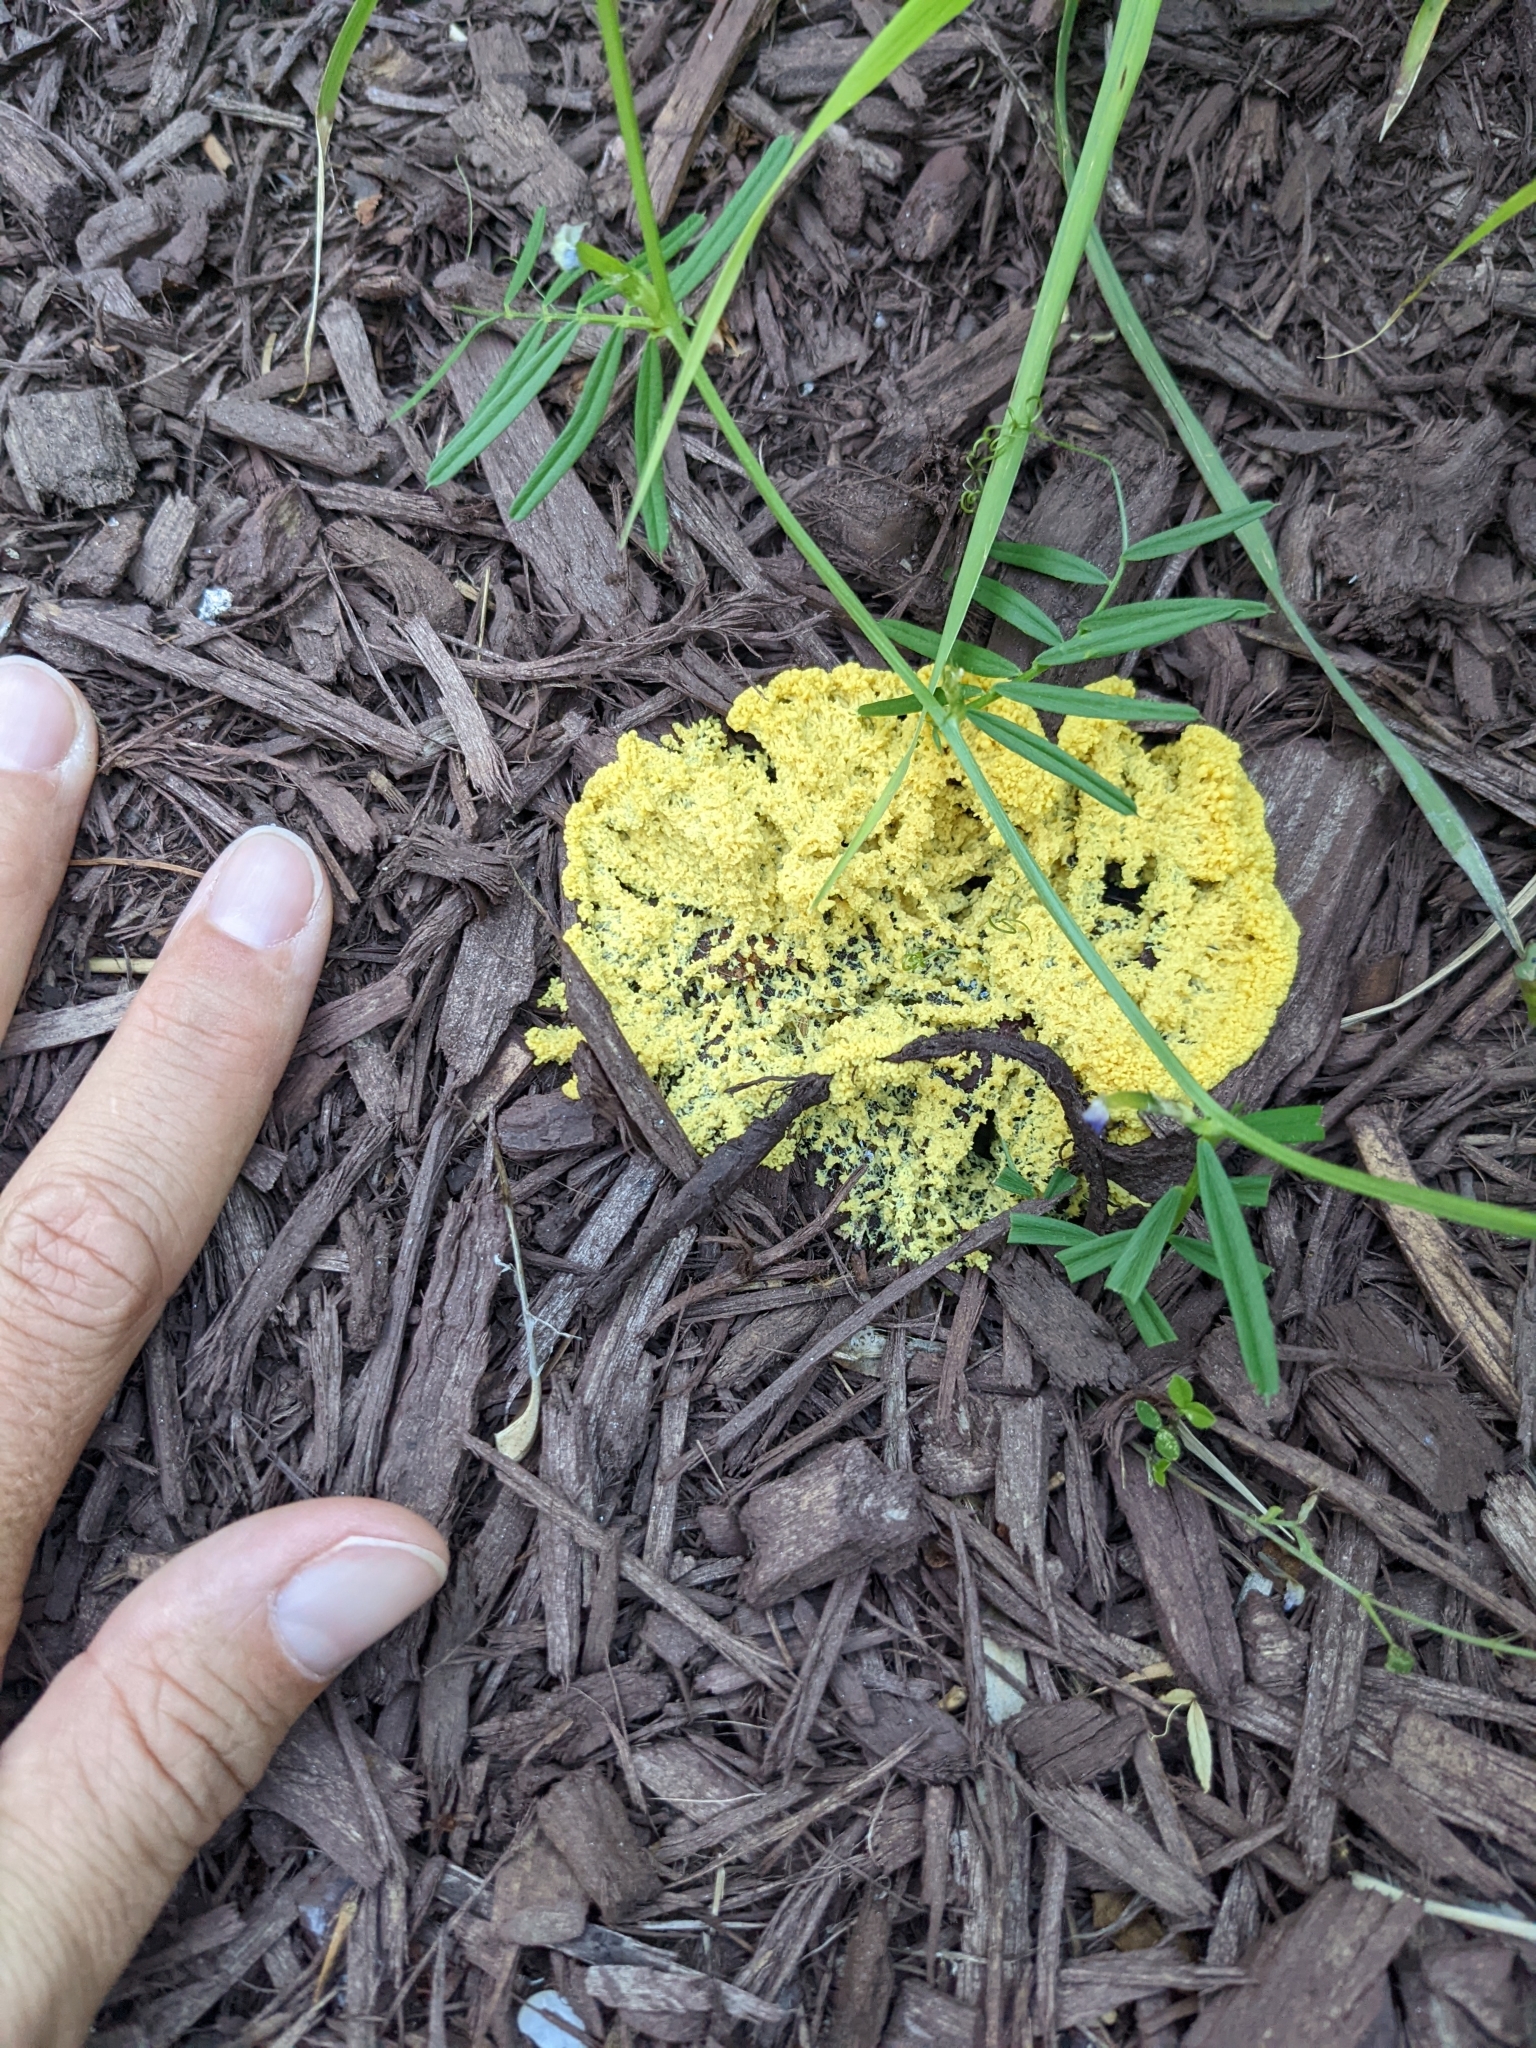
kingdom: Protozoa
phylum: Mycetozoa
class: Myxomycetes
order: Physarales
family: Physaraceae
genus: Fuligo
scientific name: Fuligo septica
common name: Dog vomit slime mold
